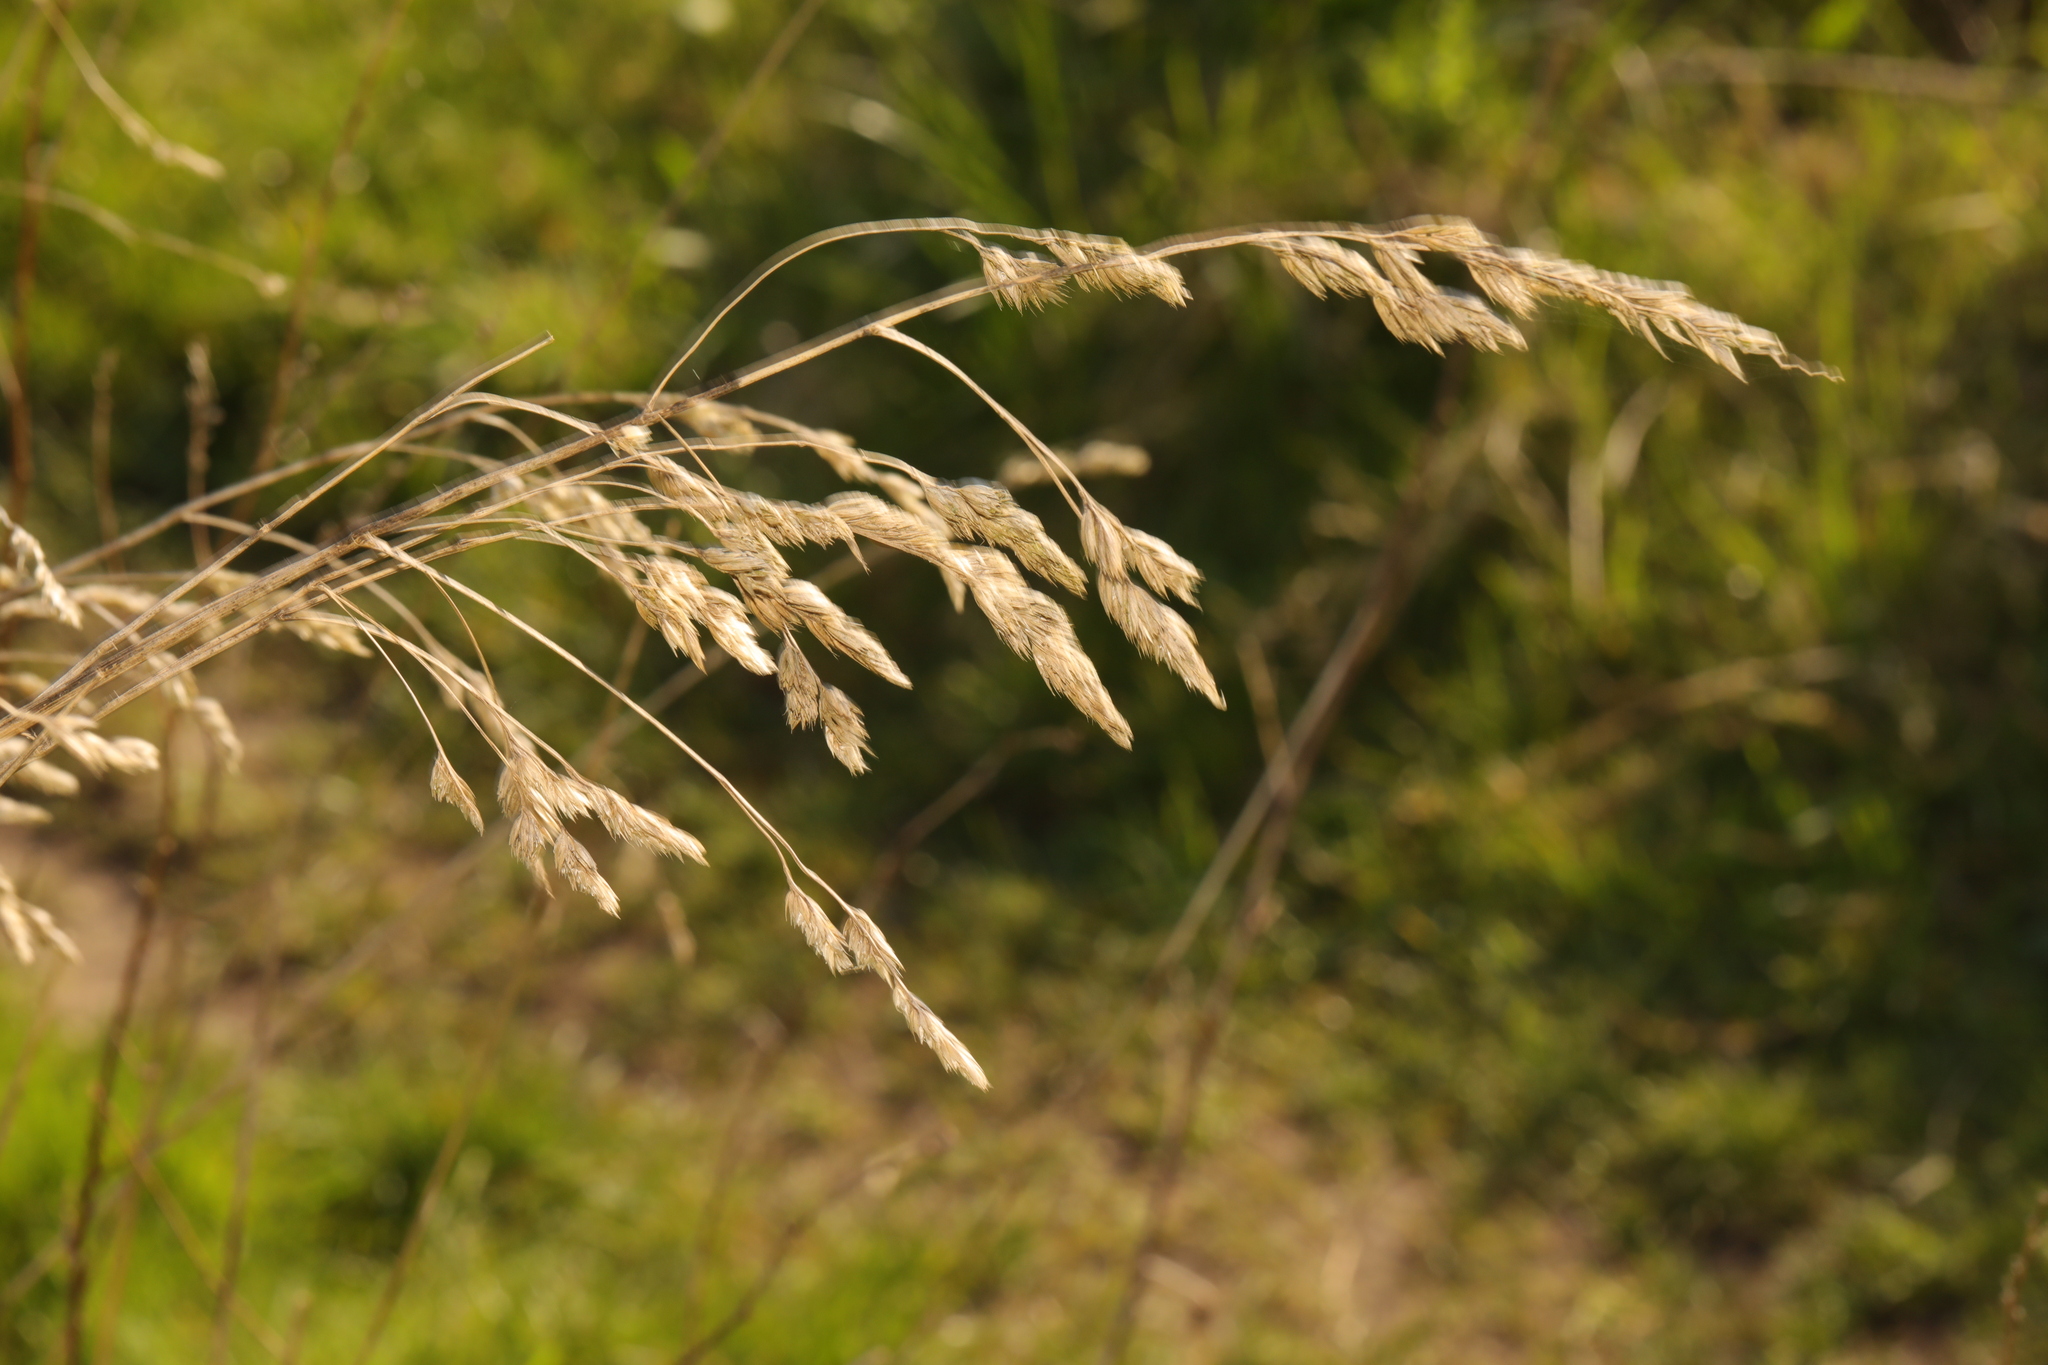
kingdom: Plantae
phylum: Tracheophyta
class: Liliopsida
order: Poales
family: Poaceae
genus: Dactylis
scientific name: Dactylis glomerata
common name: Orchardgrass
